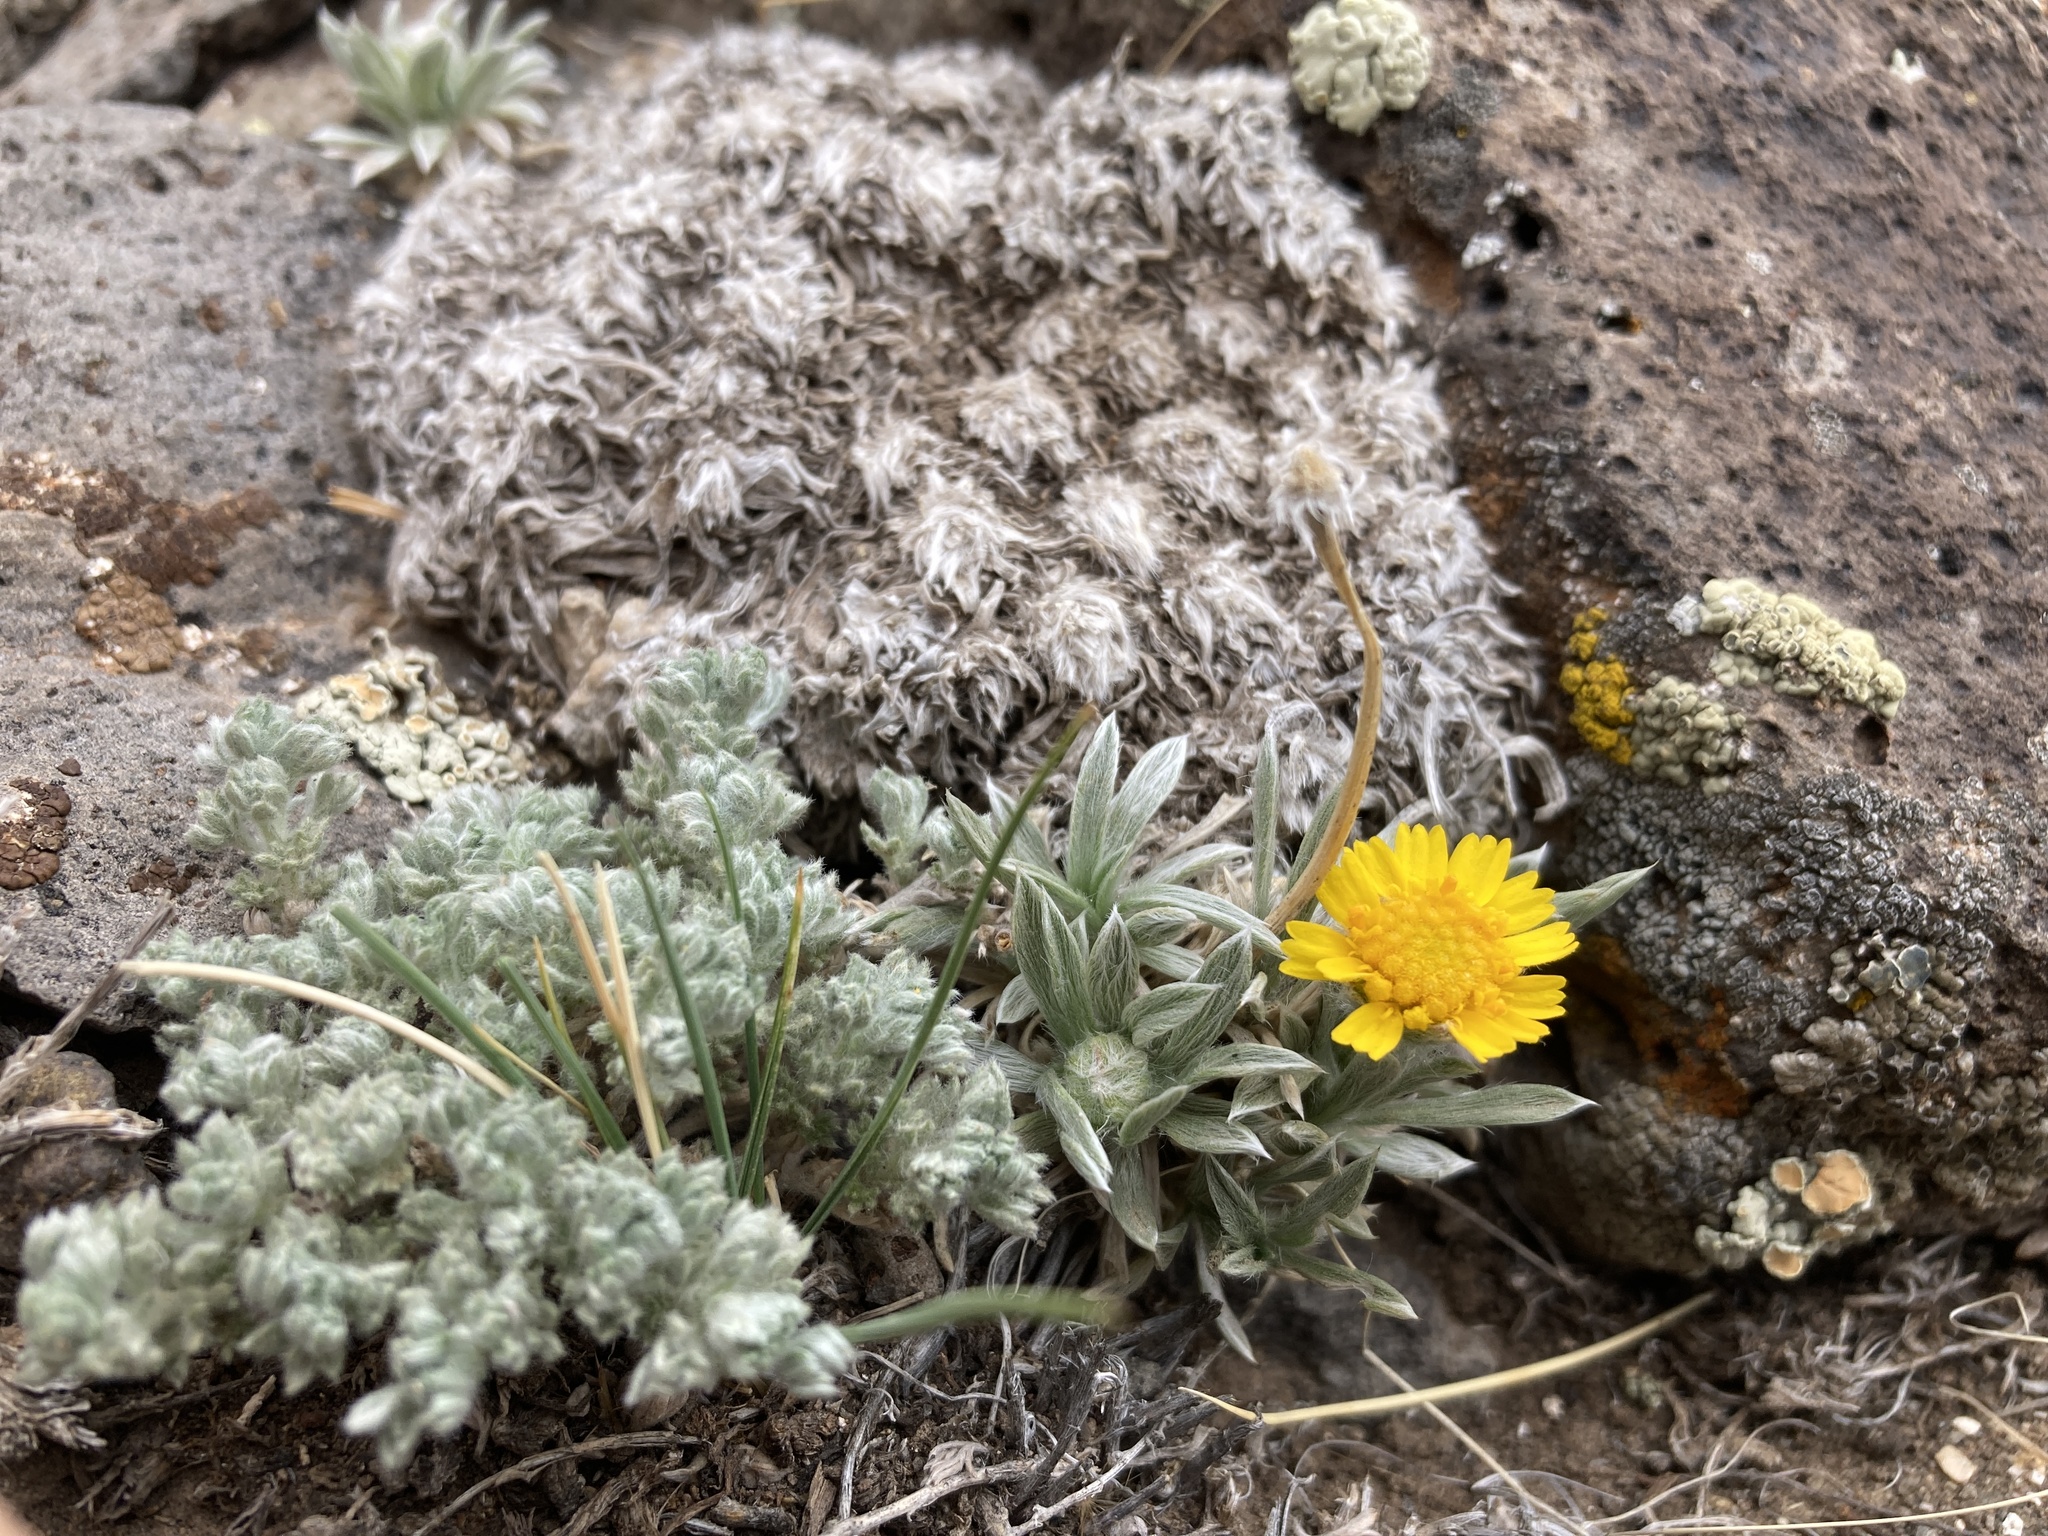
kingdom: Plantae
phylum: Tracheophyta
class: Magnoliopsida
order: Asterales
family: Asteraceae
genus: Tetraneuris
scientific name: Tetraneuris acaulis
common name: Butte marigold
